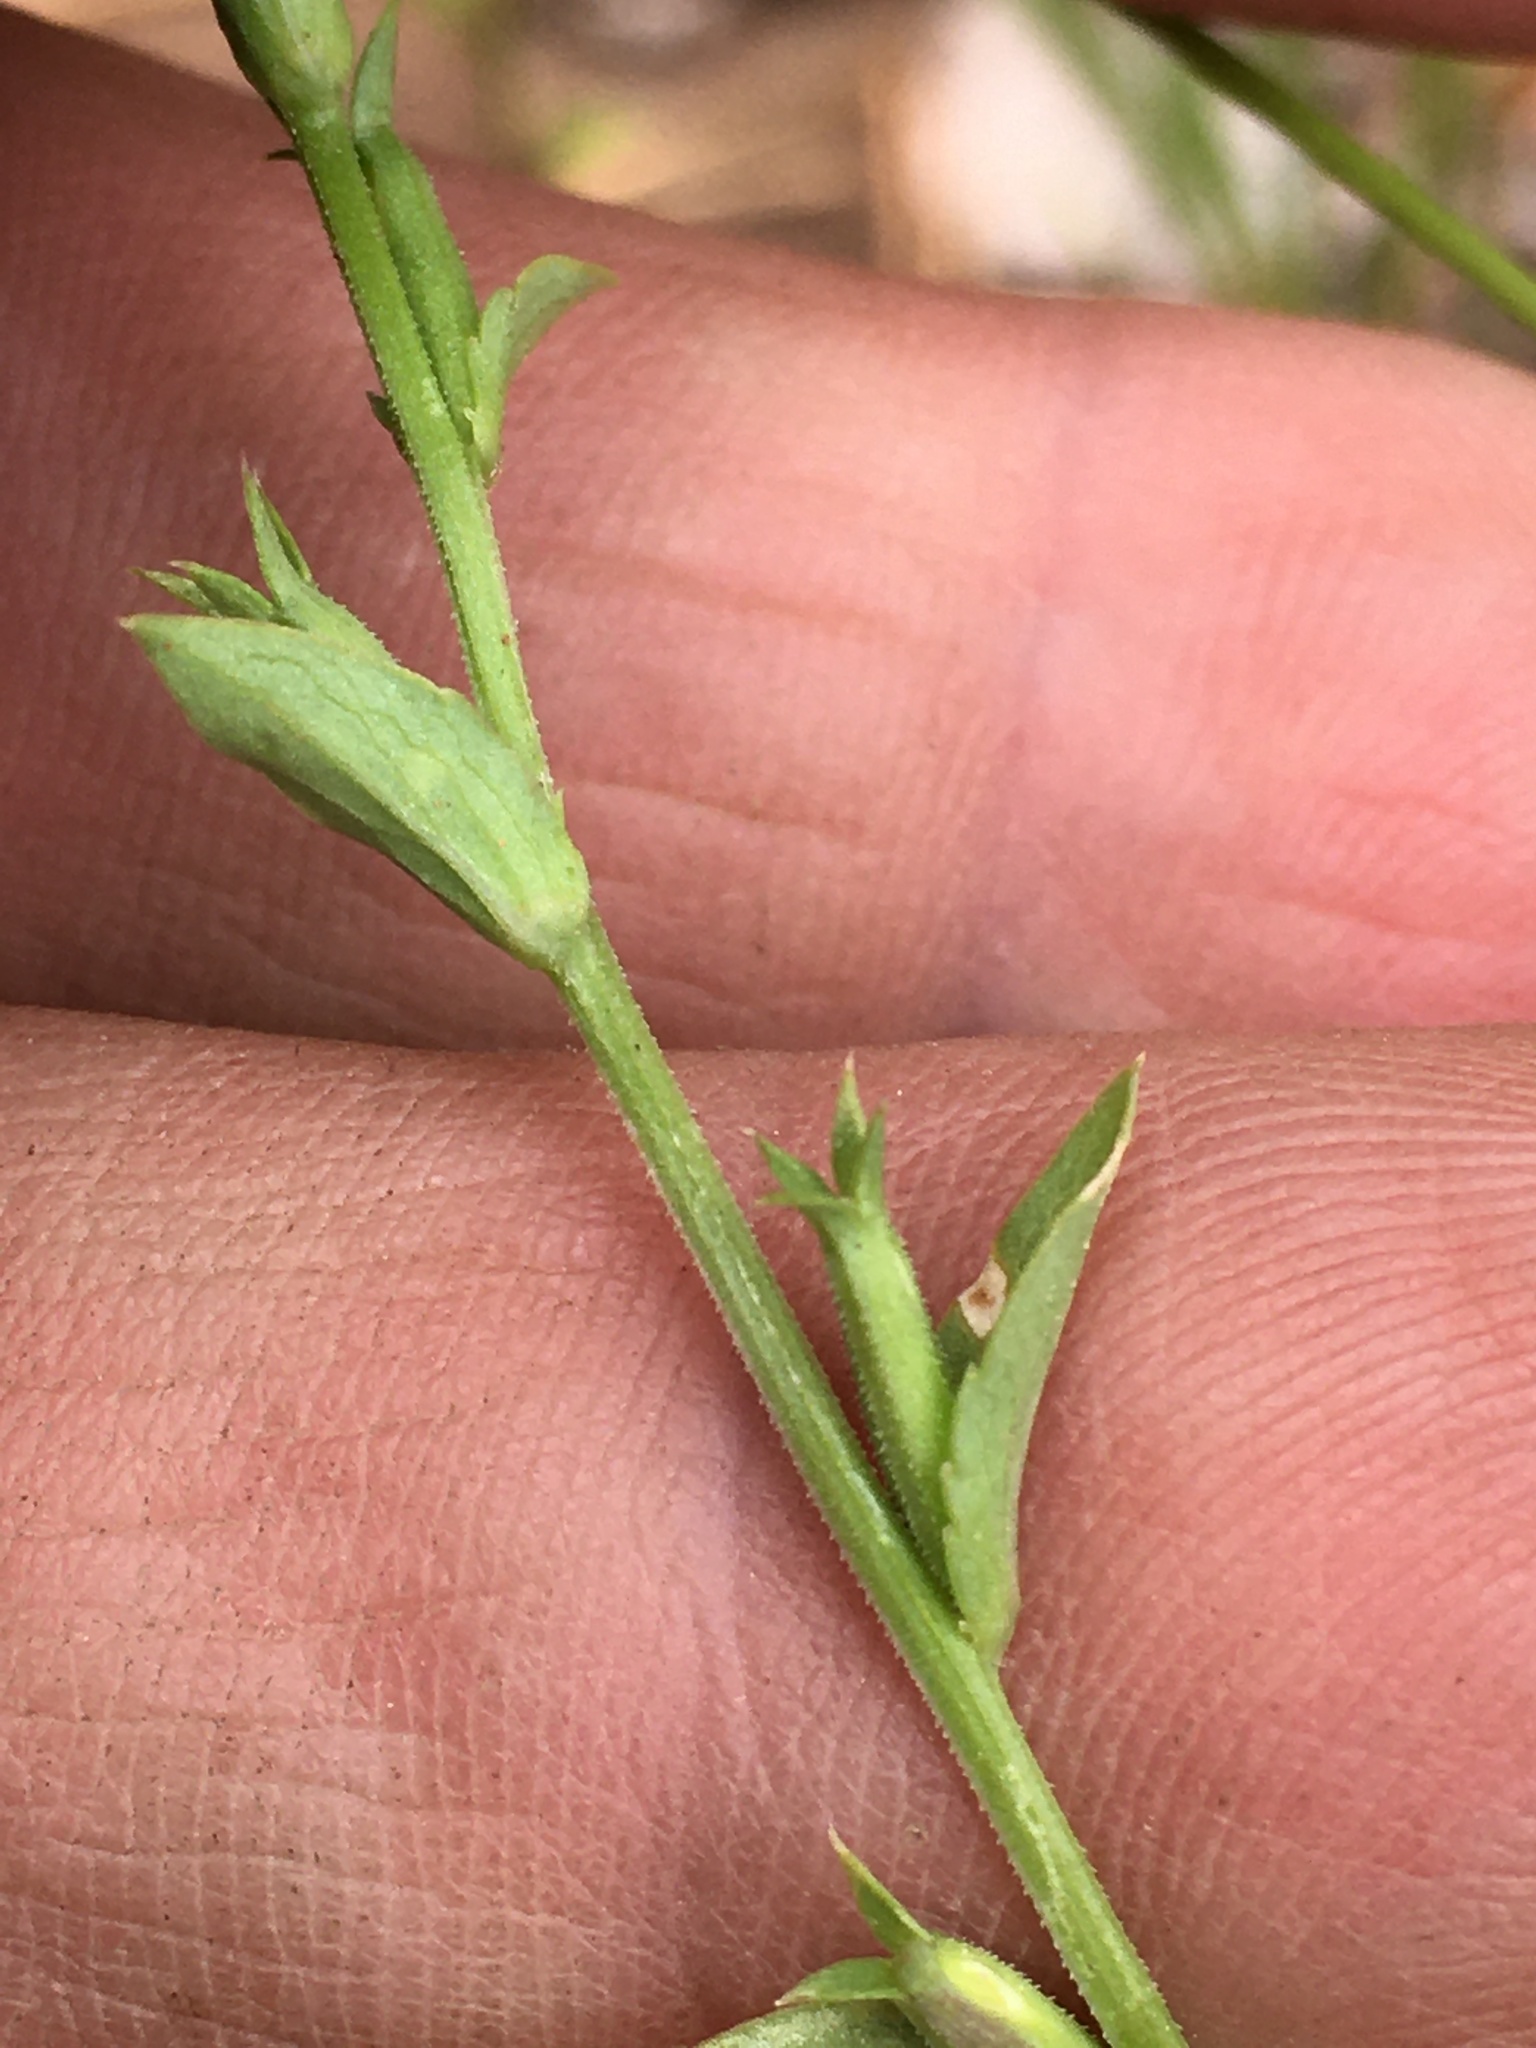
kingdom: Plantae
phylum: Tracheophyta
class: Magnoliopsida
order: Asterales
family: Campanulaceae
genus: Triodanis
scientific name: Triodanis biflora
